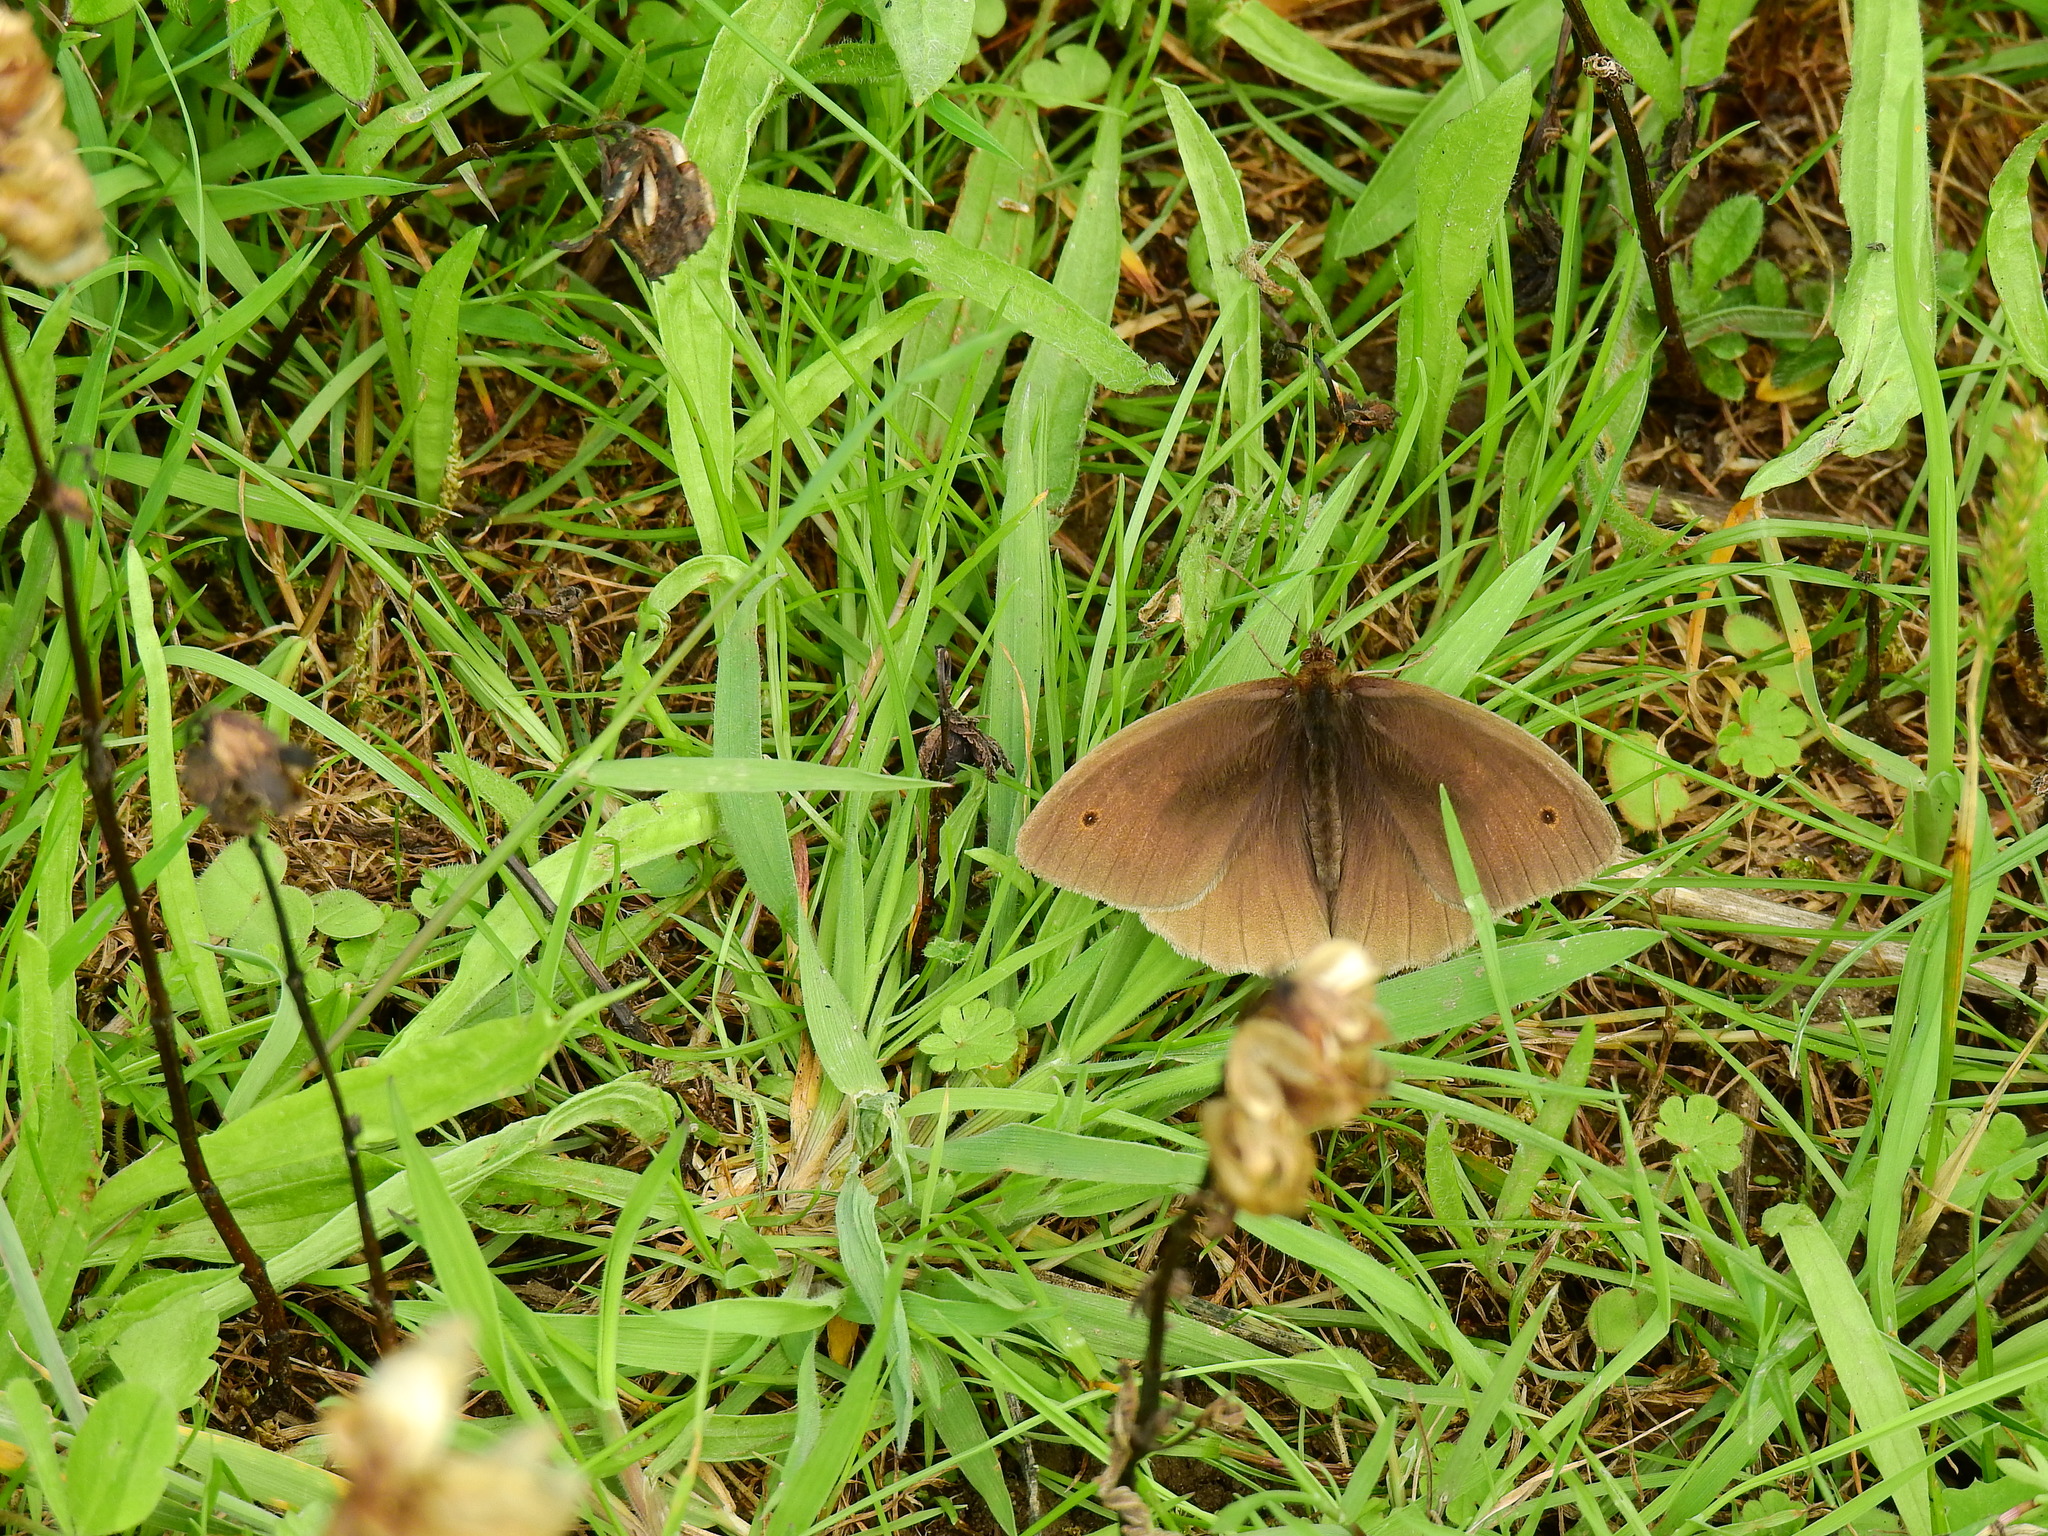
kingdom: Animalia
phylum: Arthropoda
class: Insecta
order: Lepidoptera
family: Nymphalidae
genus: Maniola
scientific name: Maniola jurtina
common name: Meadow brown
